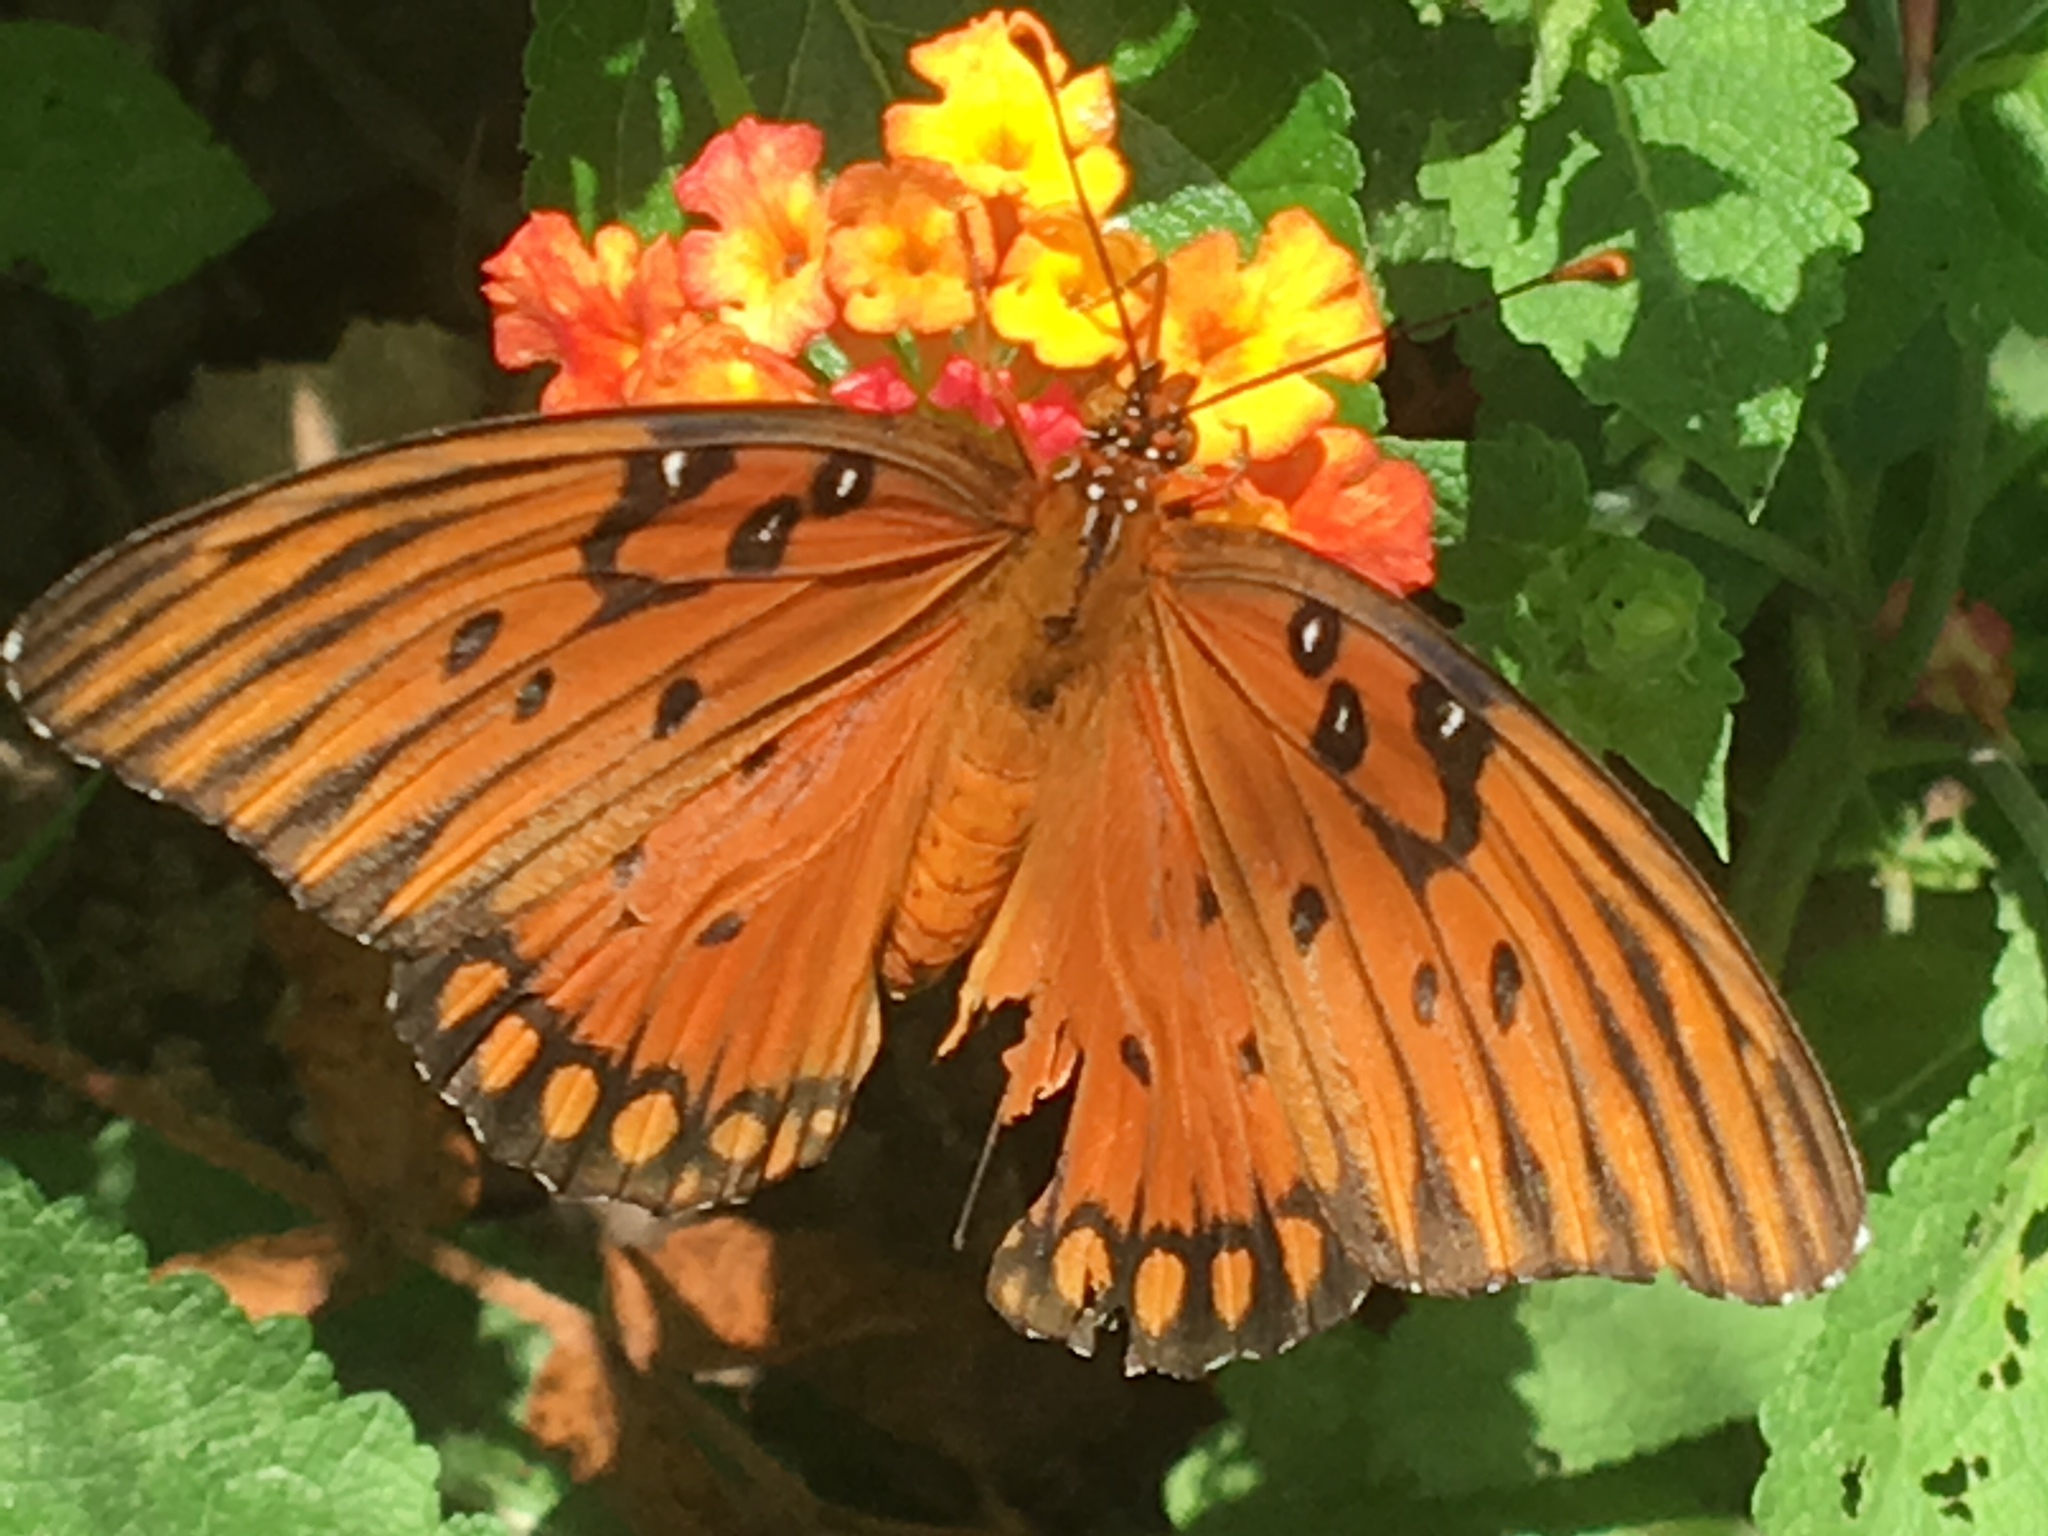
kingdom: Animalia
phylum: Arthropoda
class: Insecta
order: Lepidoptera
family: Nymphalidae
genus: Dione
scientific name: Dione vanillae
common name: Gulf fritillary
